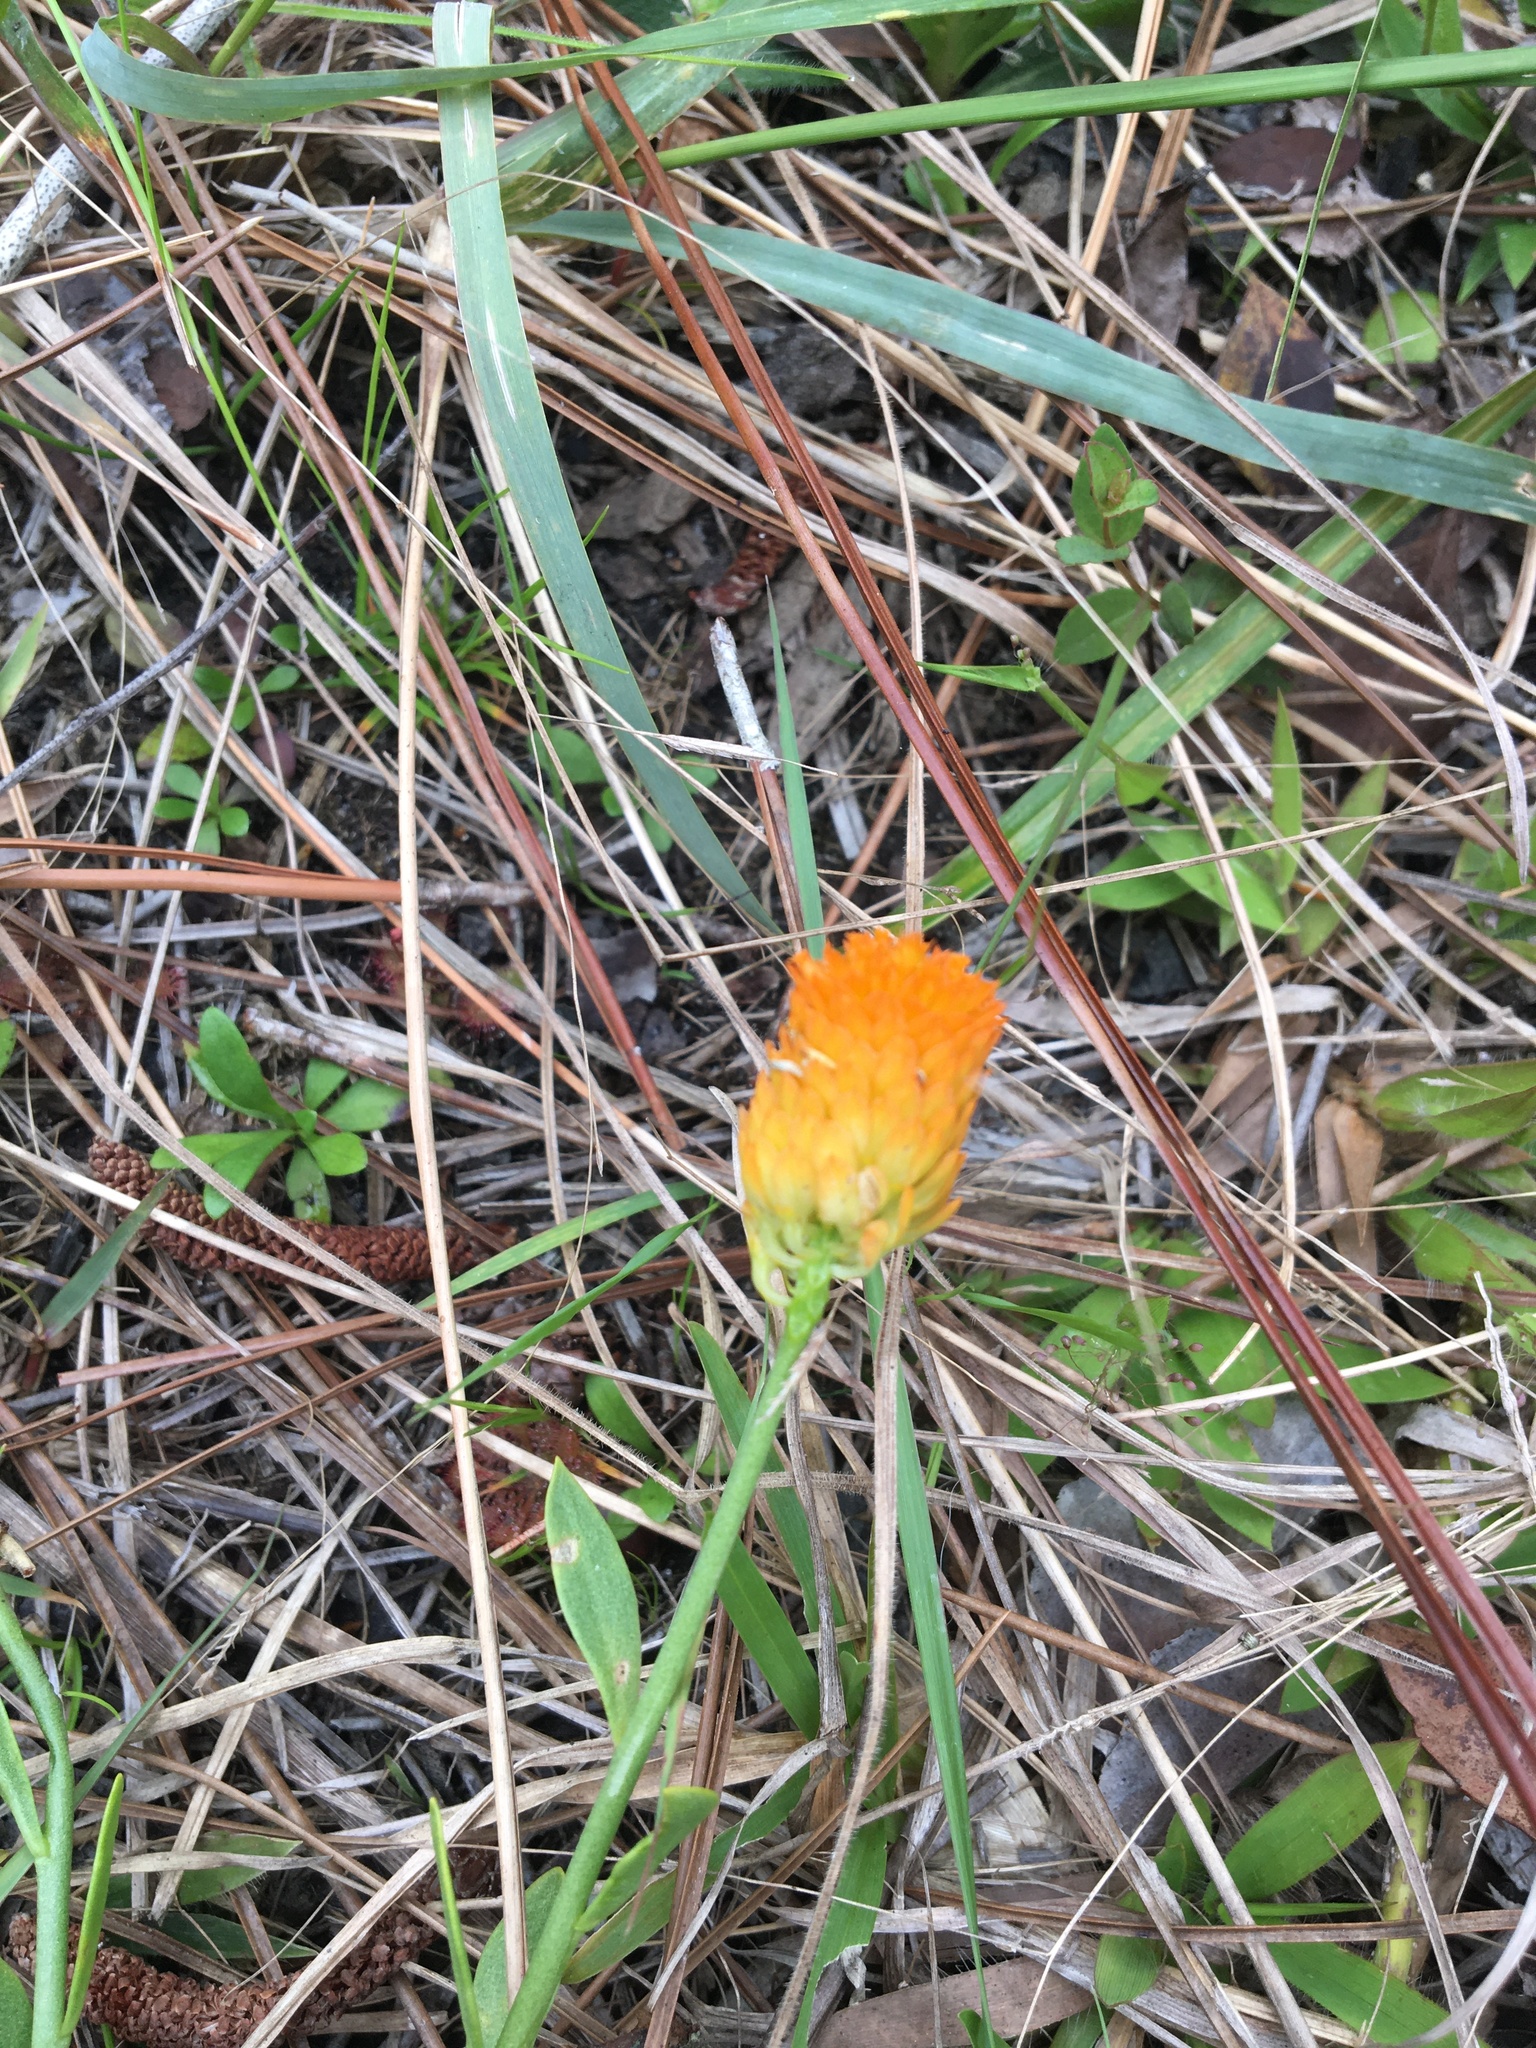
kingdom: Plantae
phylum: Tracheophyta
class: Magnoliopsida
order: Fabales
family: Polygalaceae
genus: Polygala
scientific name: Polygala lutea
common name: Orange milkwort
